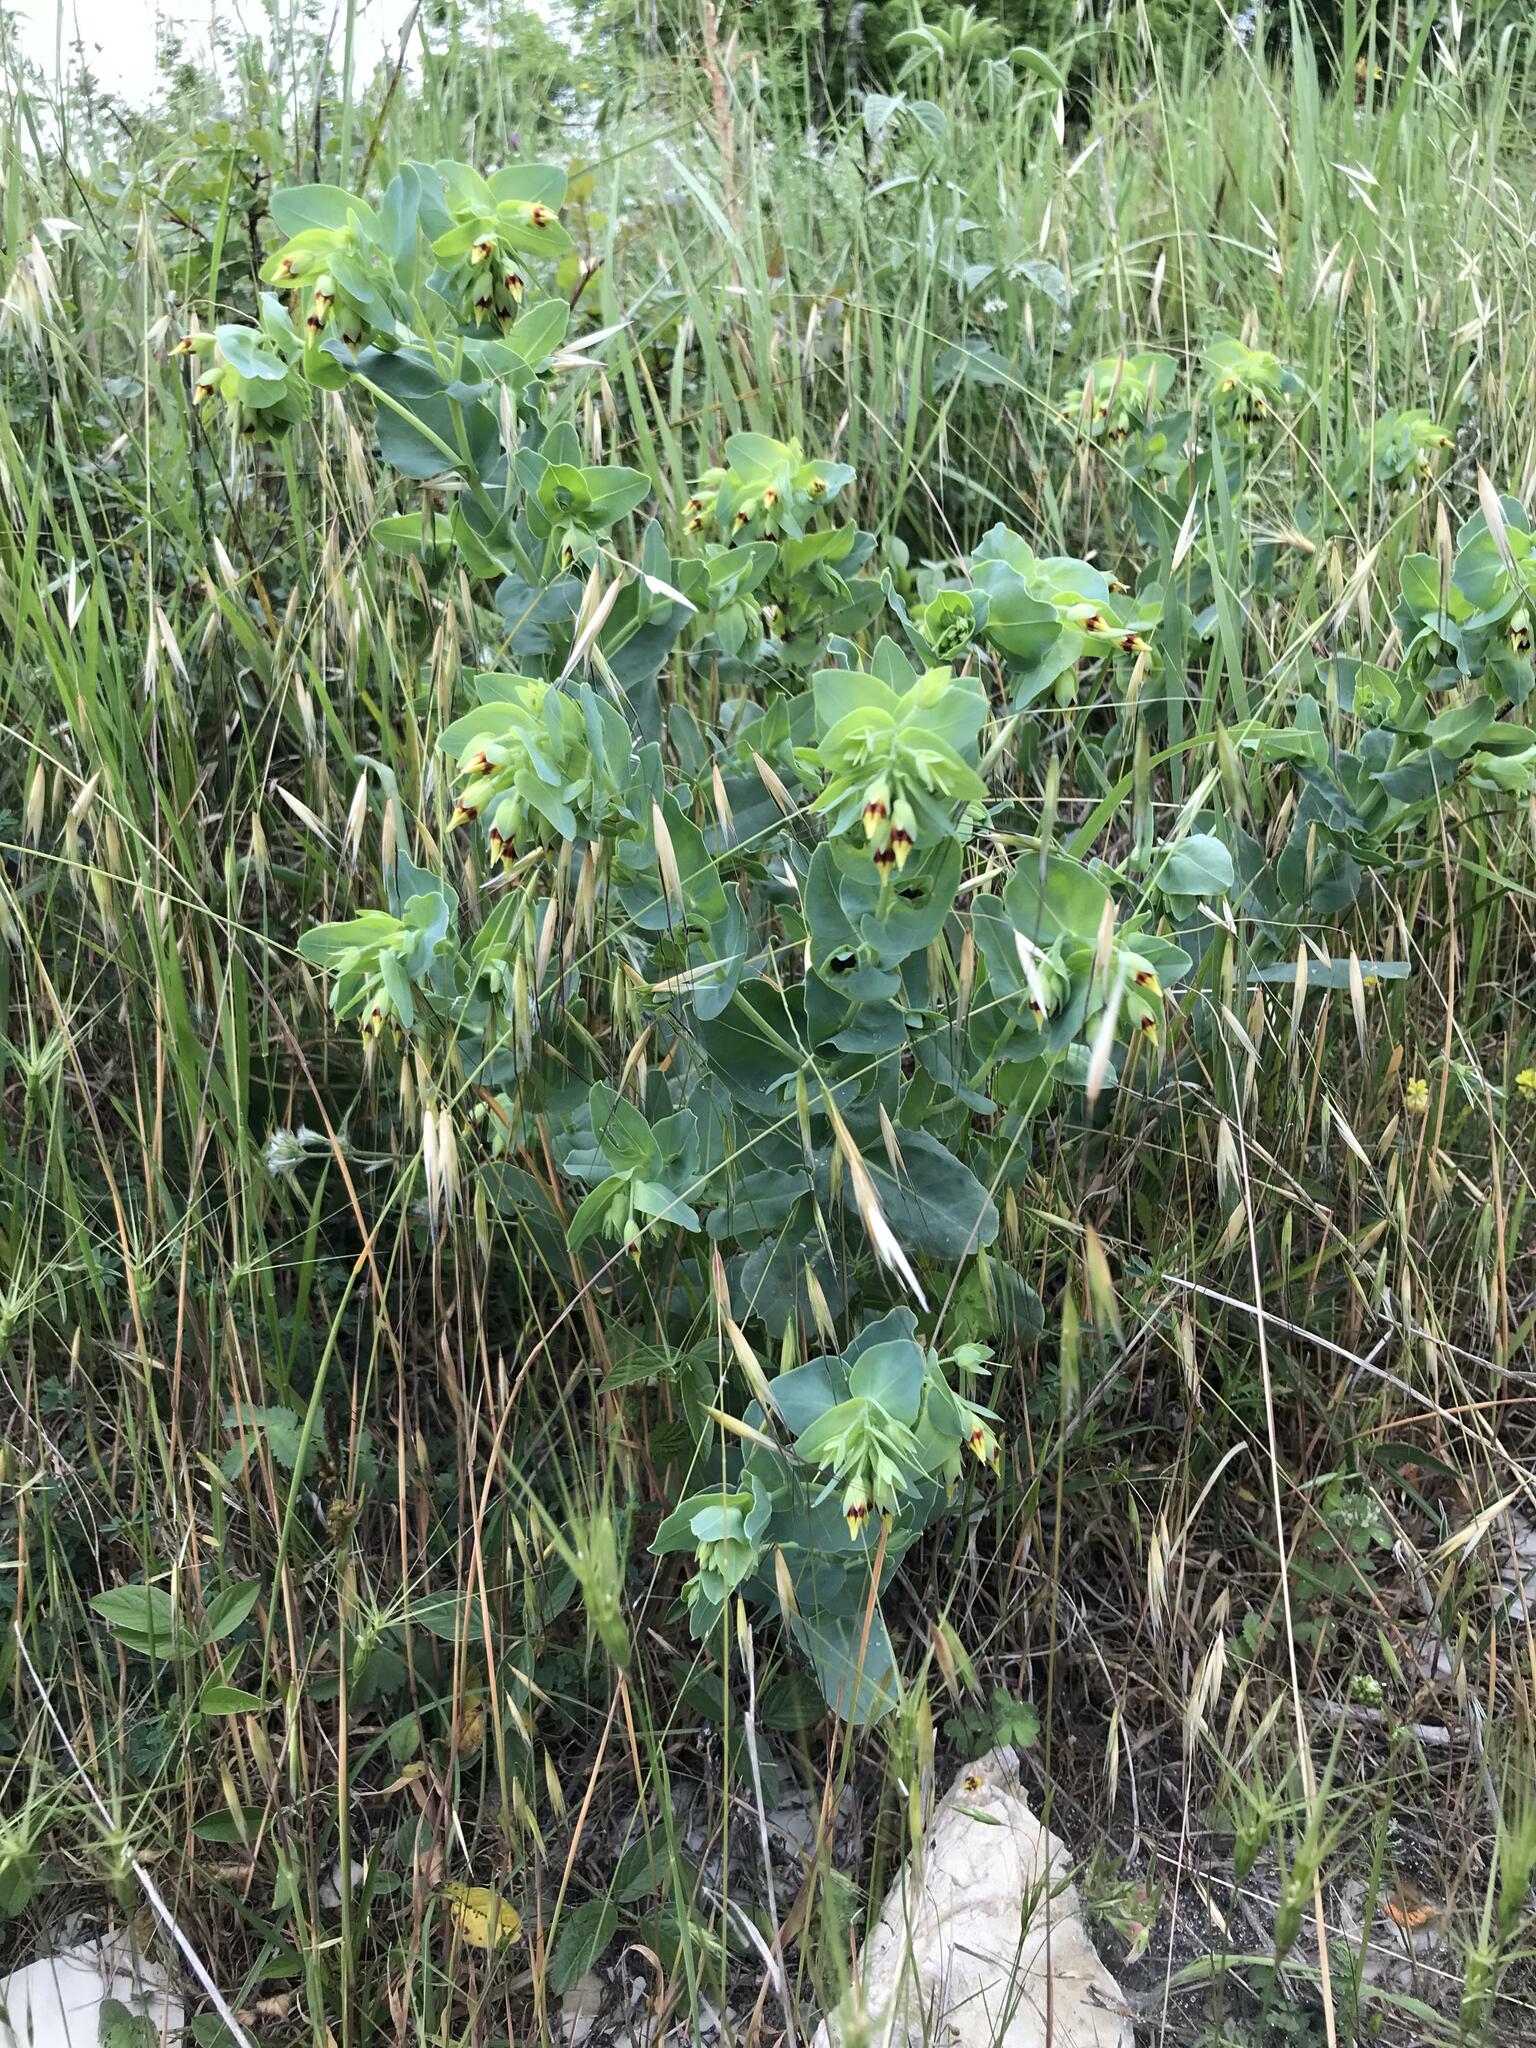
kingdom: Plantae
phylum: Tracheophyta
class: Magnoliopsida
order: Boraginales
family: Boraginaceae
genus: Cerinthe
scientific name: Cerinthe minor
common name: Lesser honeywort
